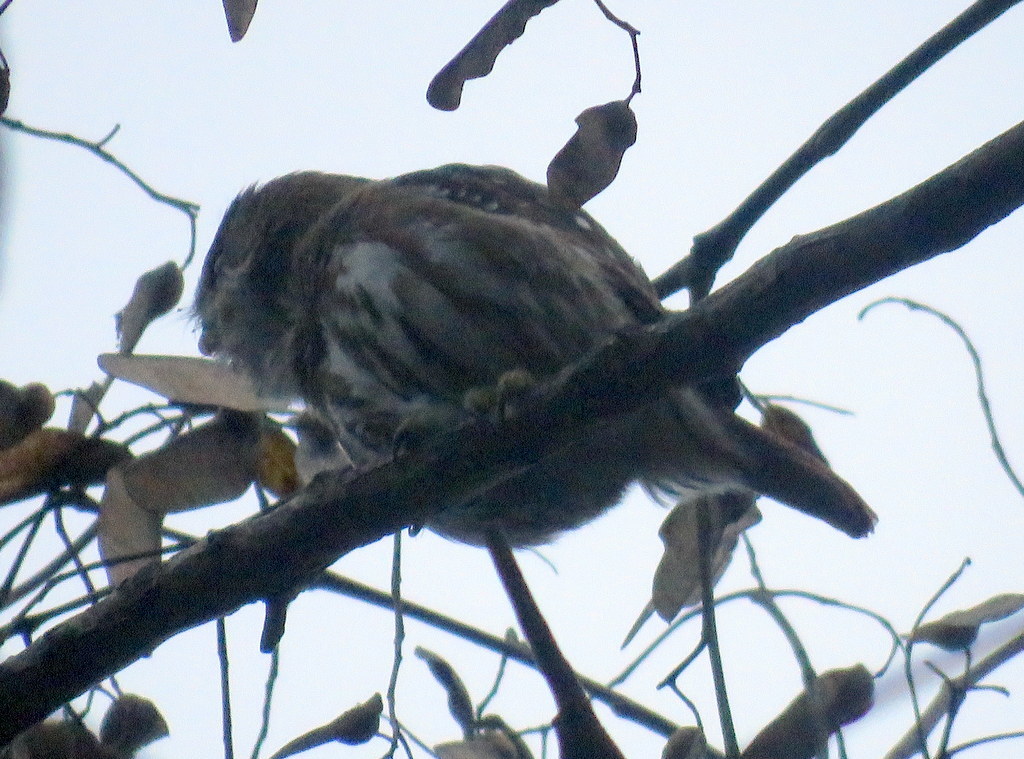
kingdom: Animalia
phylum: Chordata
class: Aves
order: Strigiformes
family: Strigidae
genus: Glaucidium
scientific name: Glaucidium brasilianum
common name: Ferruginous pygmy-owl
